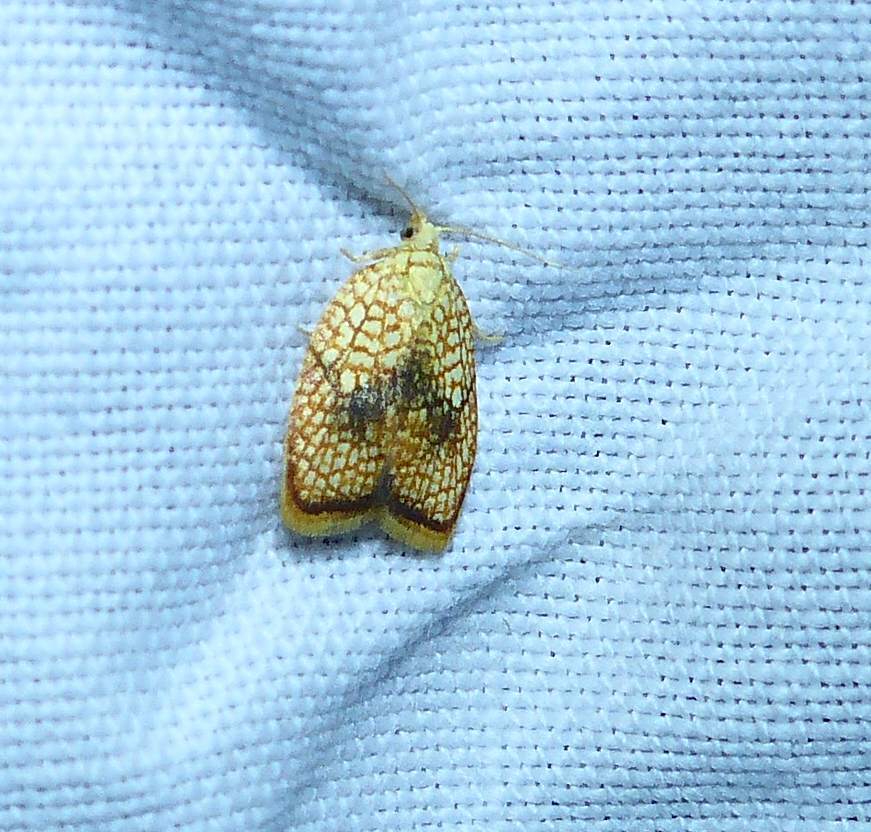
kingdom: Animalia
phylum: Arthropoda
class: Insecta
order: Lepidoptera
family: Tortricidae
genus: Acleris
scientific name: Acleris forsskaleana
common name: Maple button
